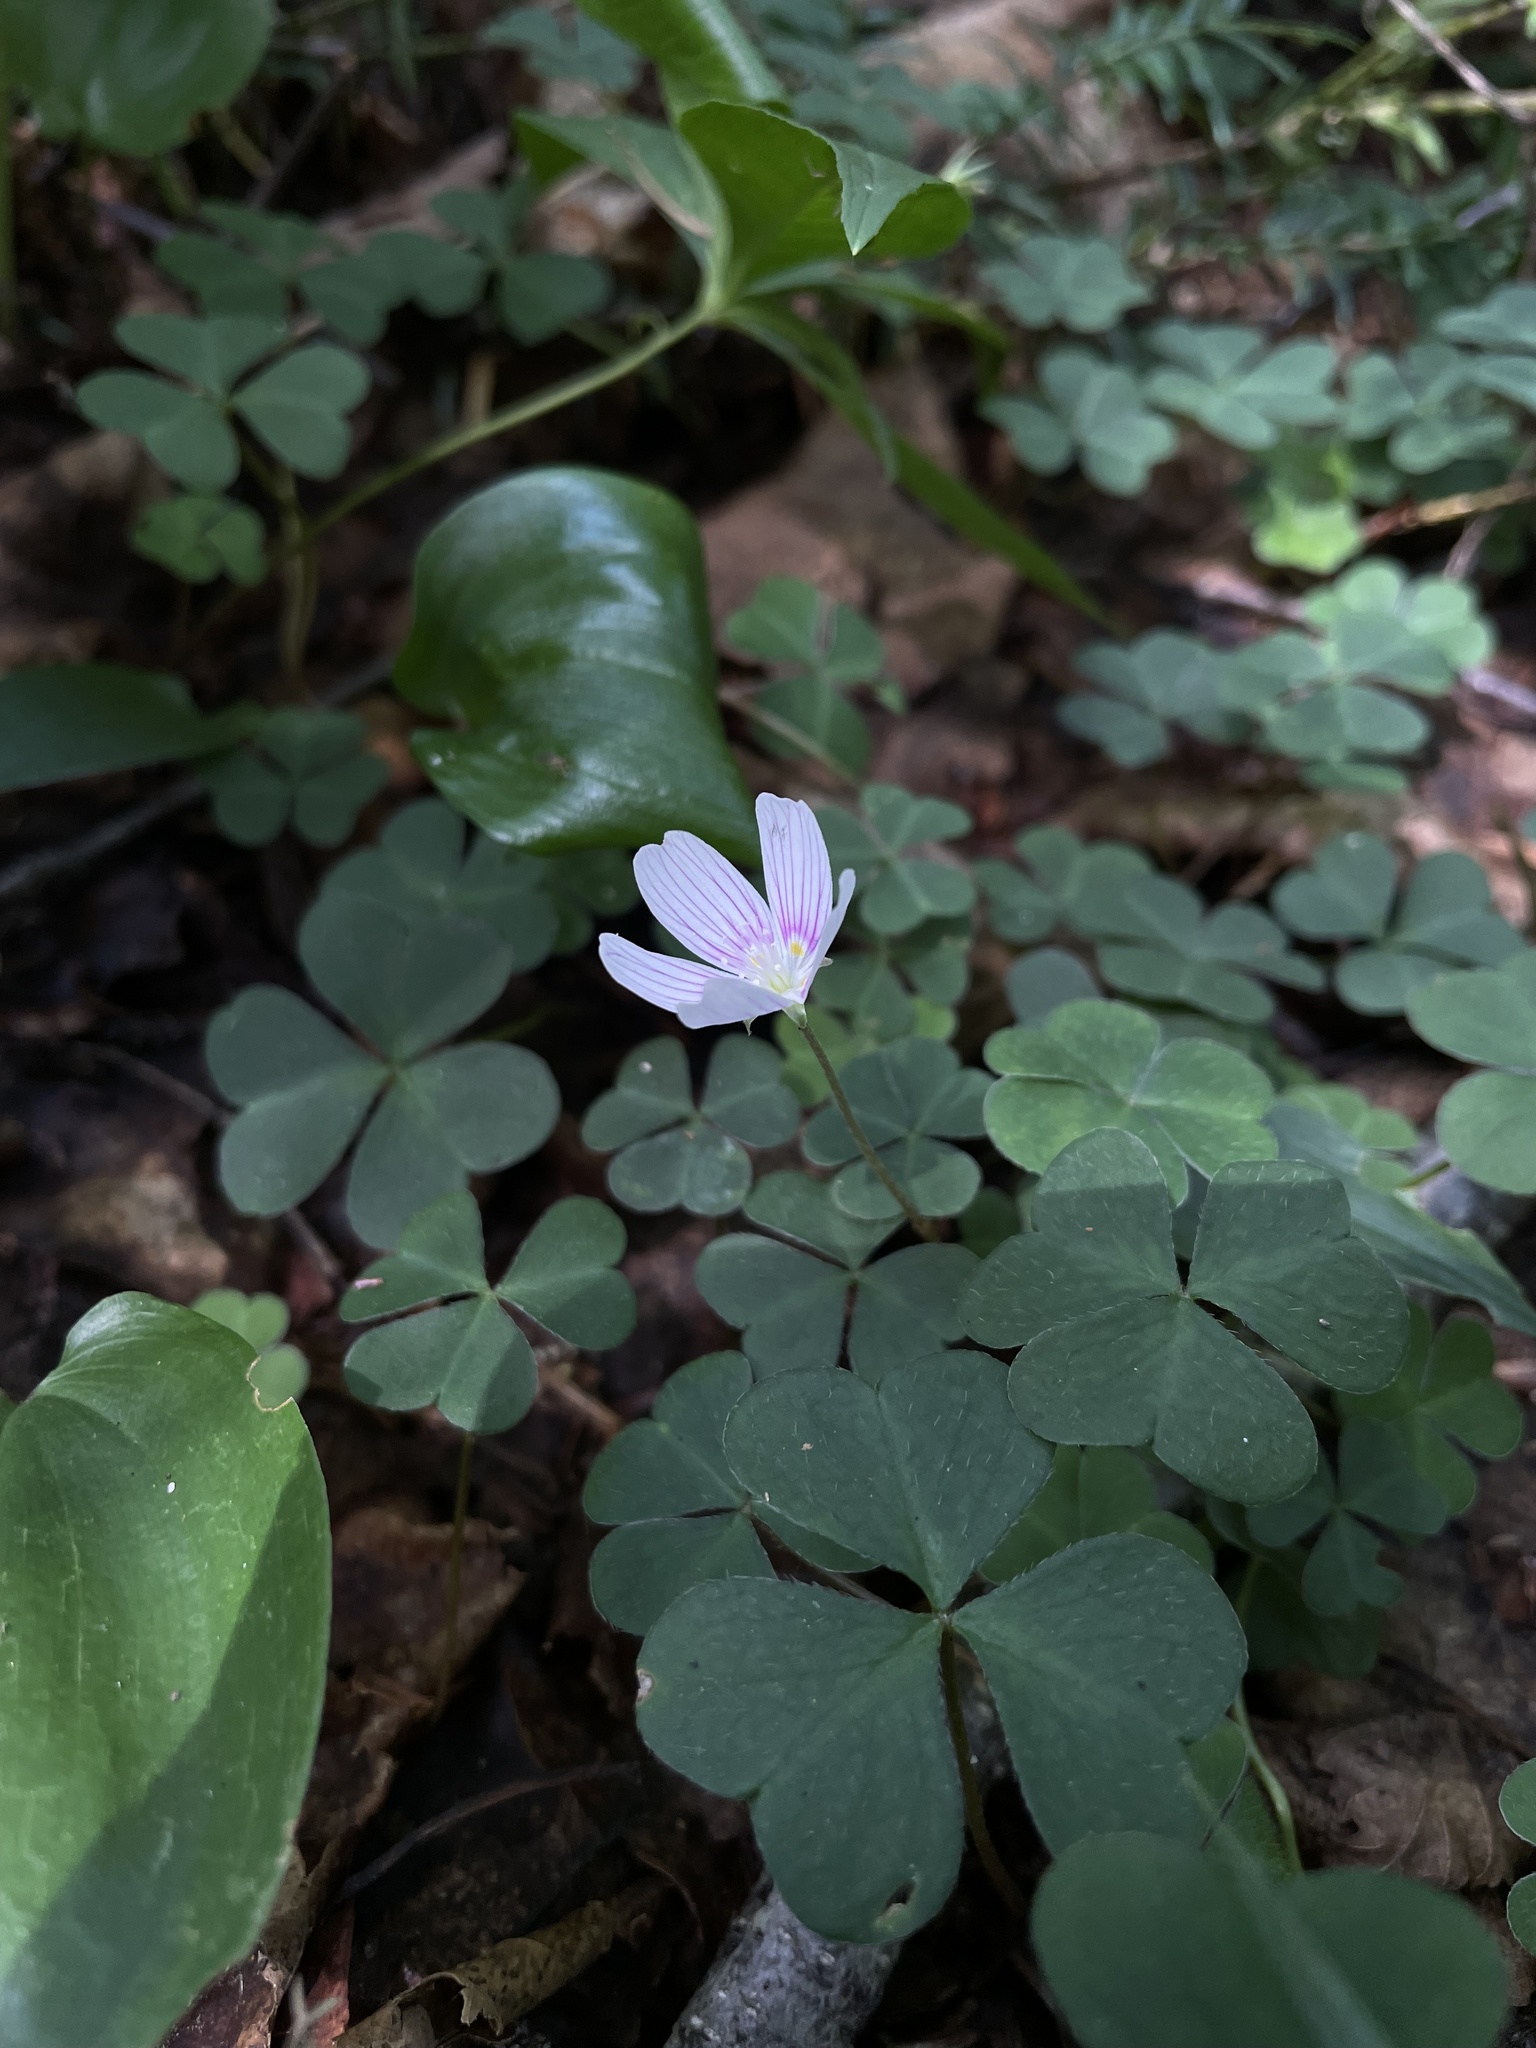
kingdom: Plantae
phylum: Tracheophyta
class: Magnoliopsida
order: Oxalidales
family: Oxalidaceae
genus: Oxalis
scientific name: Oxalis montana
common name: American wood-sorrel
